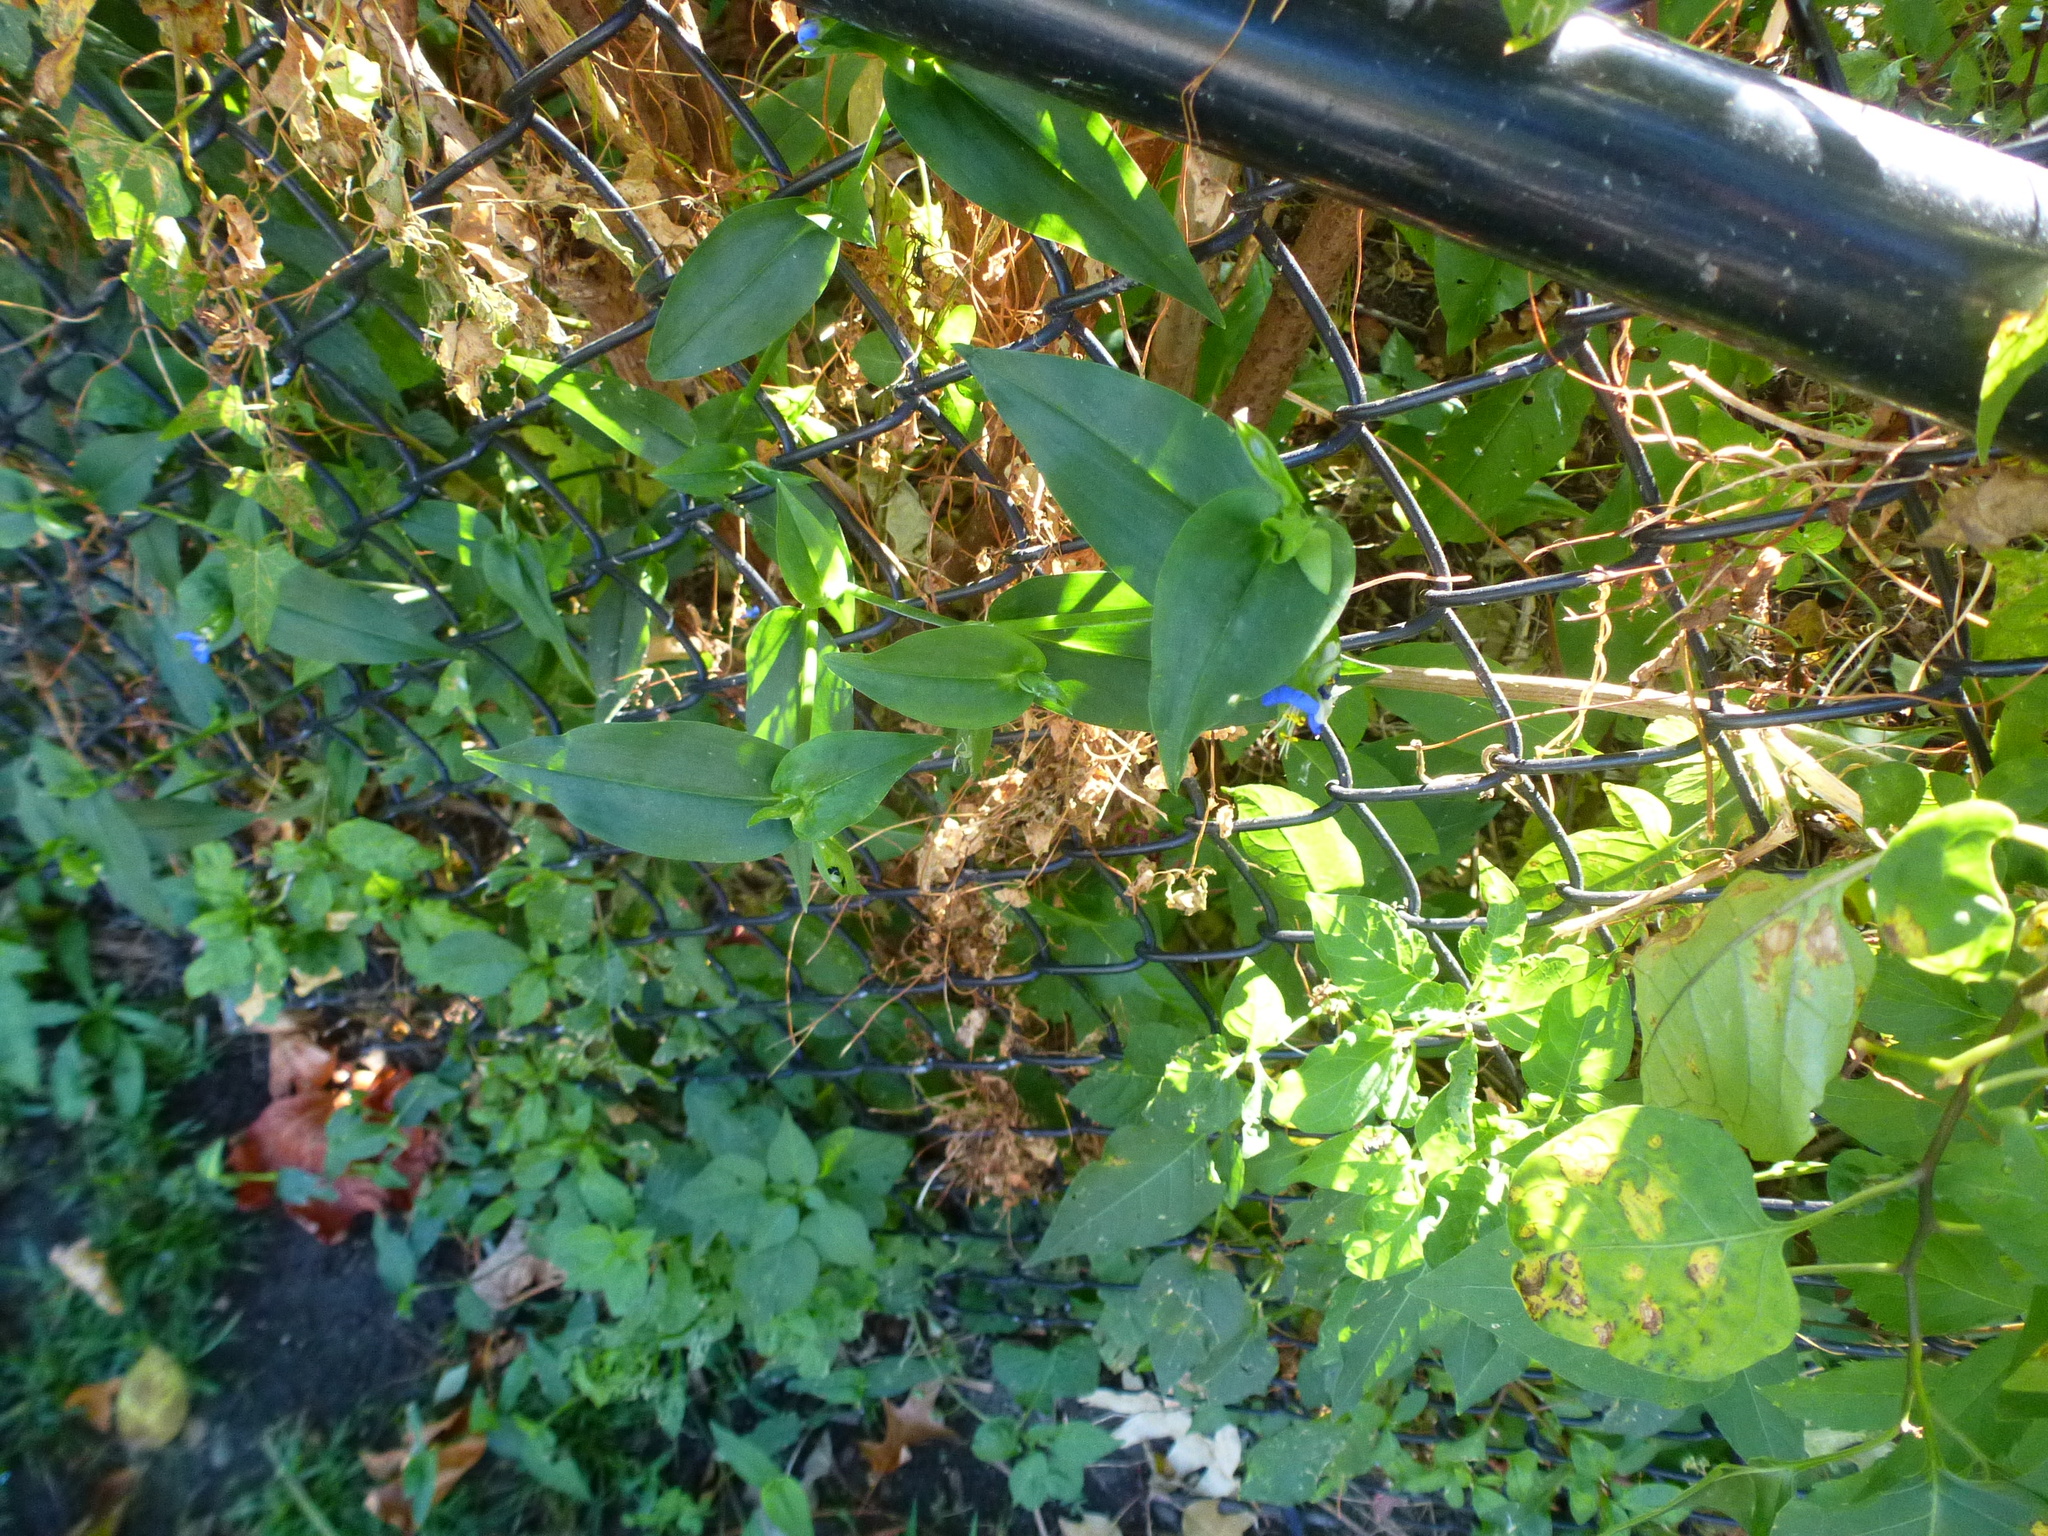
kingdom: Plantae
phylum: Tracheophyta
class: Liliopsida
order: Commelinales
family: Commelinaceae
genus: Commelina
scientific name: Commelina communis
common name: Asiatic dayflower
